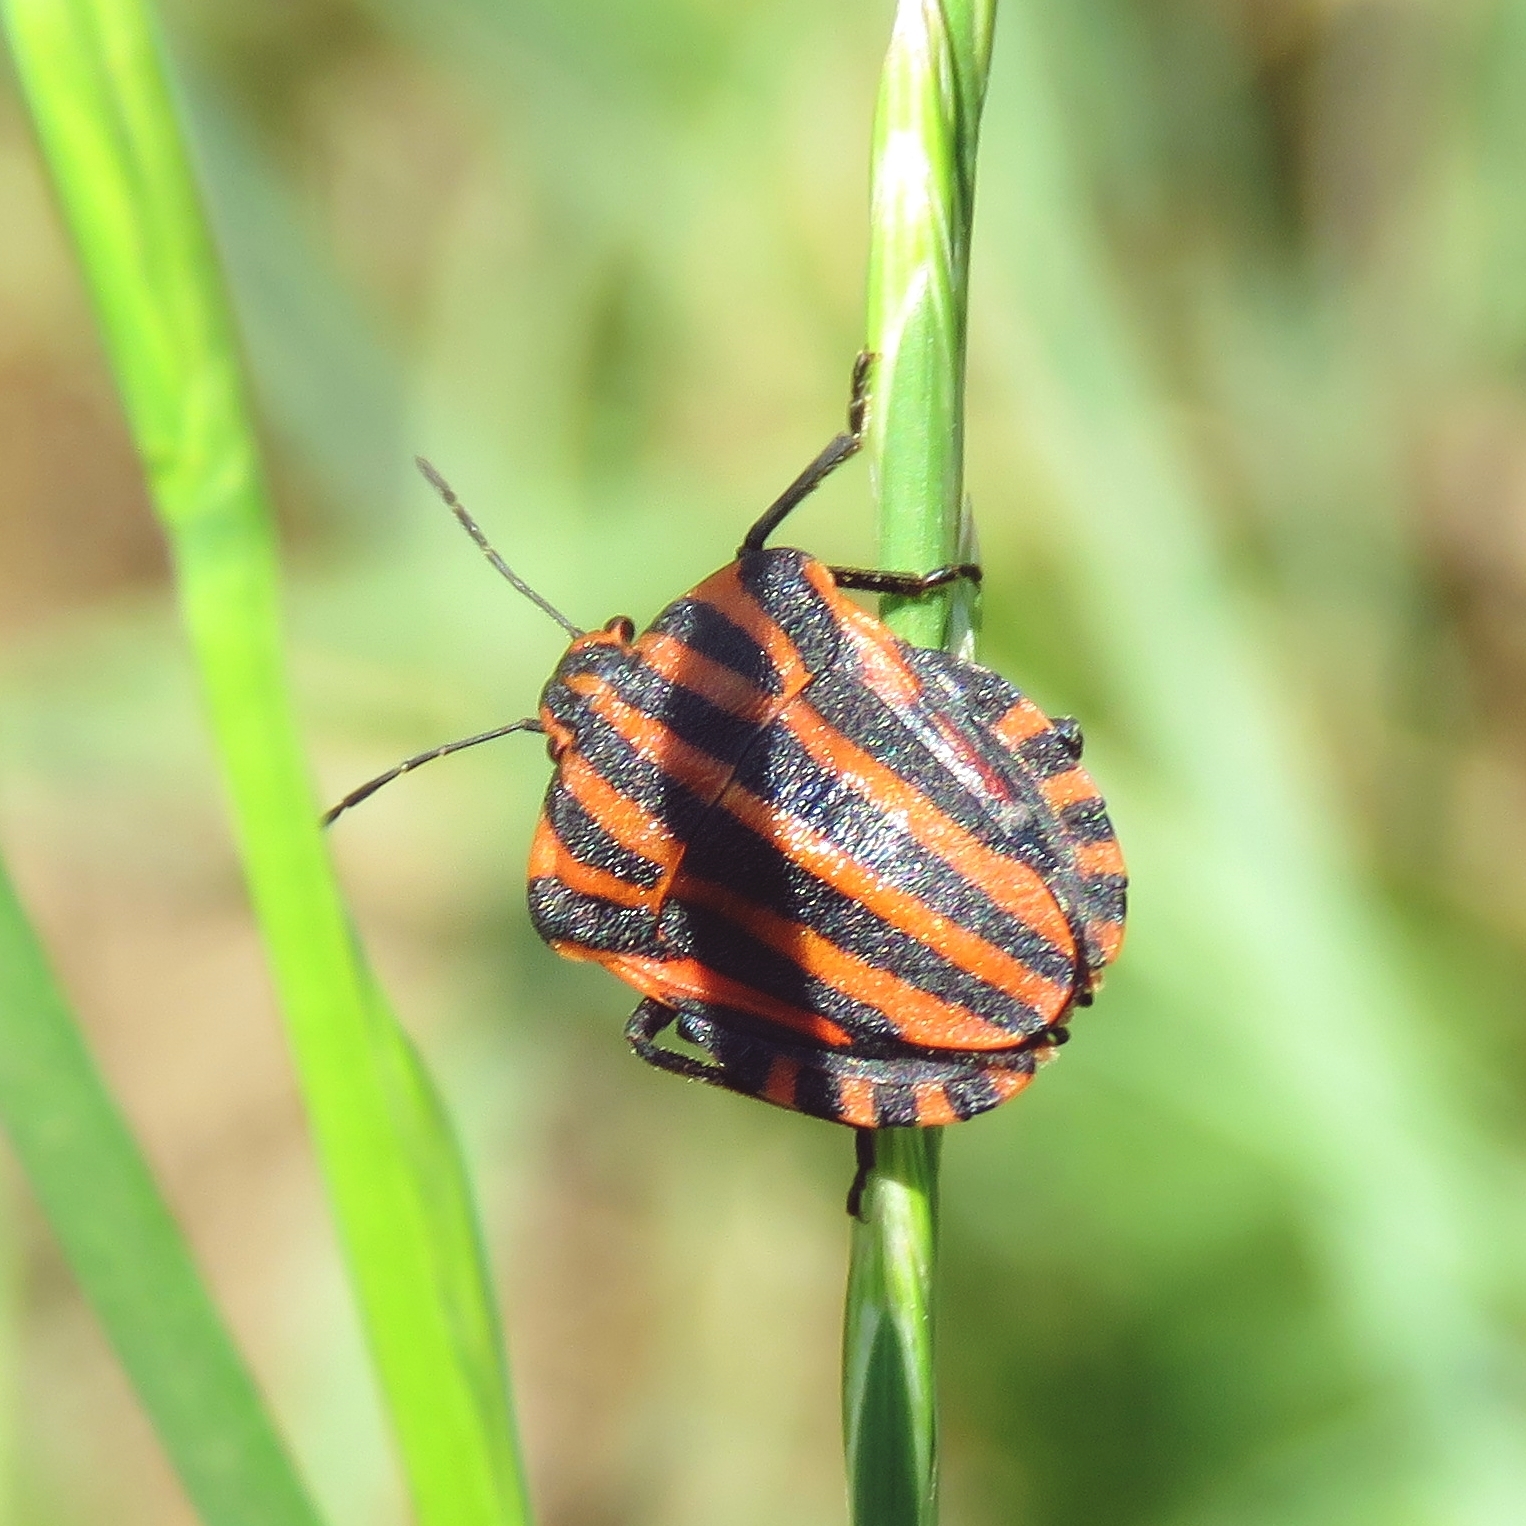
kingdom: Animalia
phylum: Arthropoda
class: Insecta
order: Hemiptera
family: Pentatomidae
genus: Graphosoma
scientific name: Graphosoma italicum
